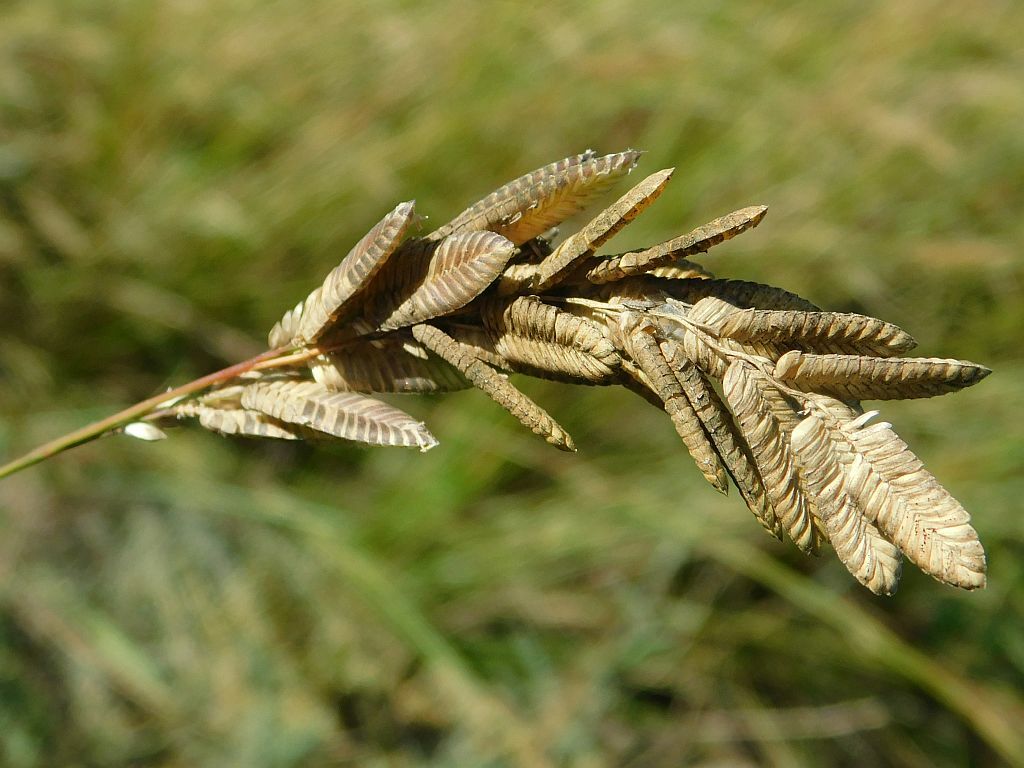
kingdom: Plantae
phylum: Tracheophyta
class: Liliopsida
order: Poales
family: Poaceae
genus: Eragrostis
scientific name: Eragrostis capensis
